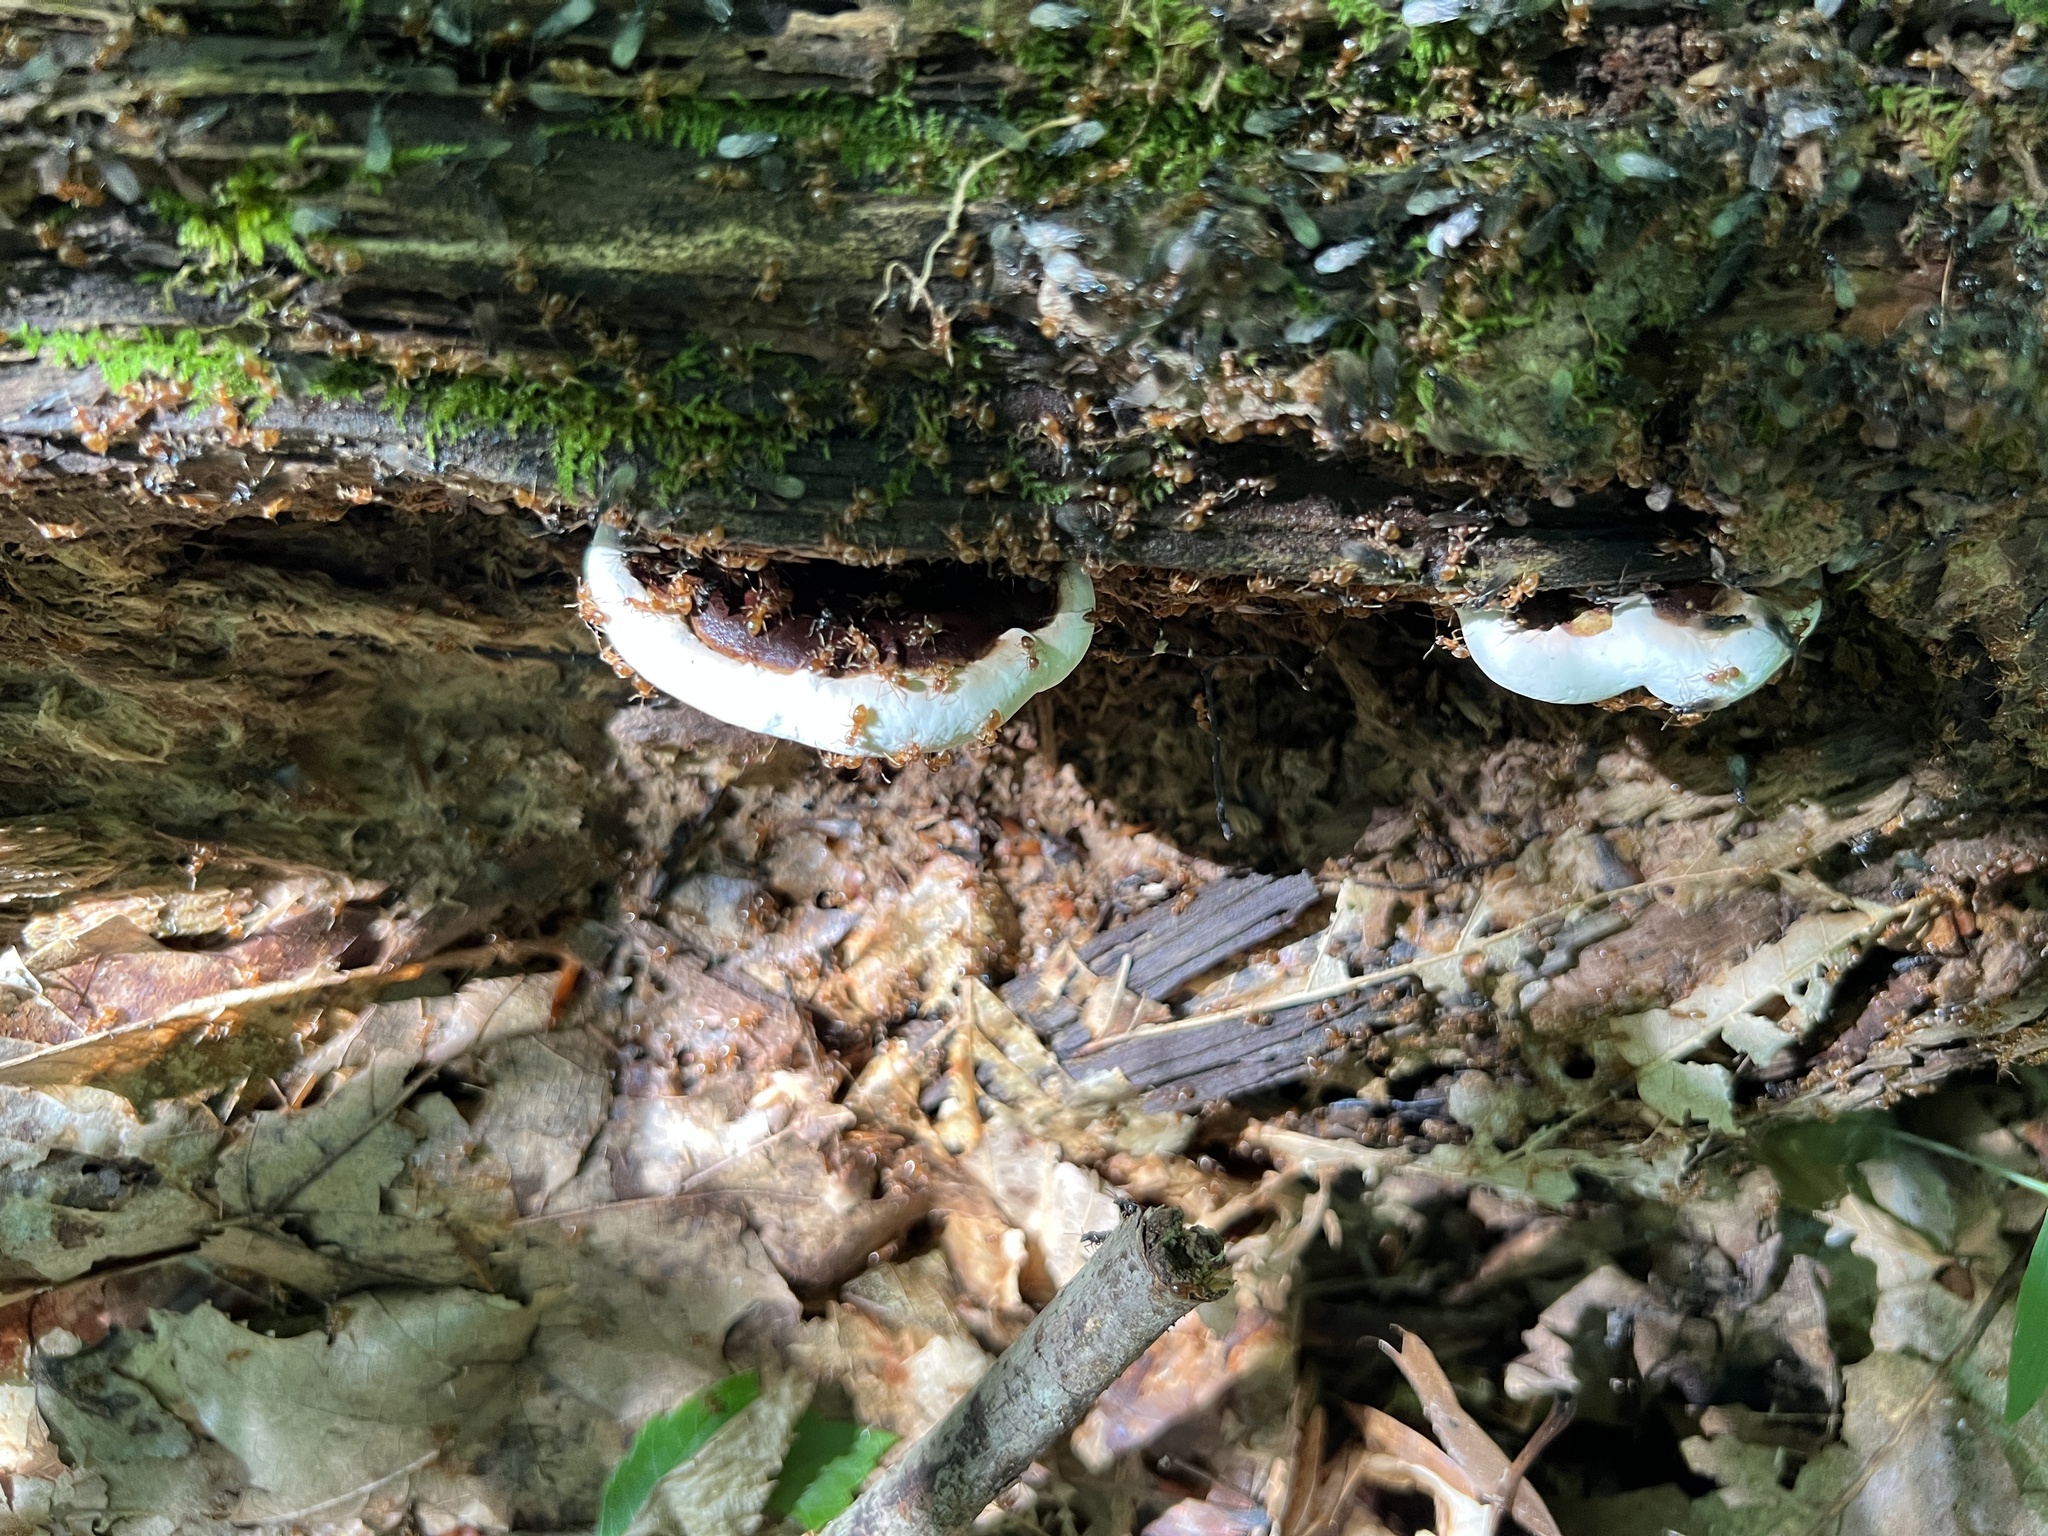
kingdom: Fungi
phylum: Basidiomycota
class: Agaricomycetes
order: Polyporales
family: Polyporaceae
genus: Ganoderma
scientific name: Ganoderma resinaceum
